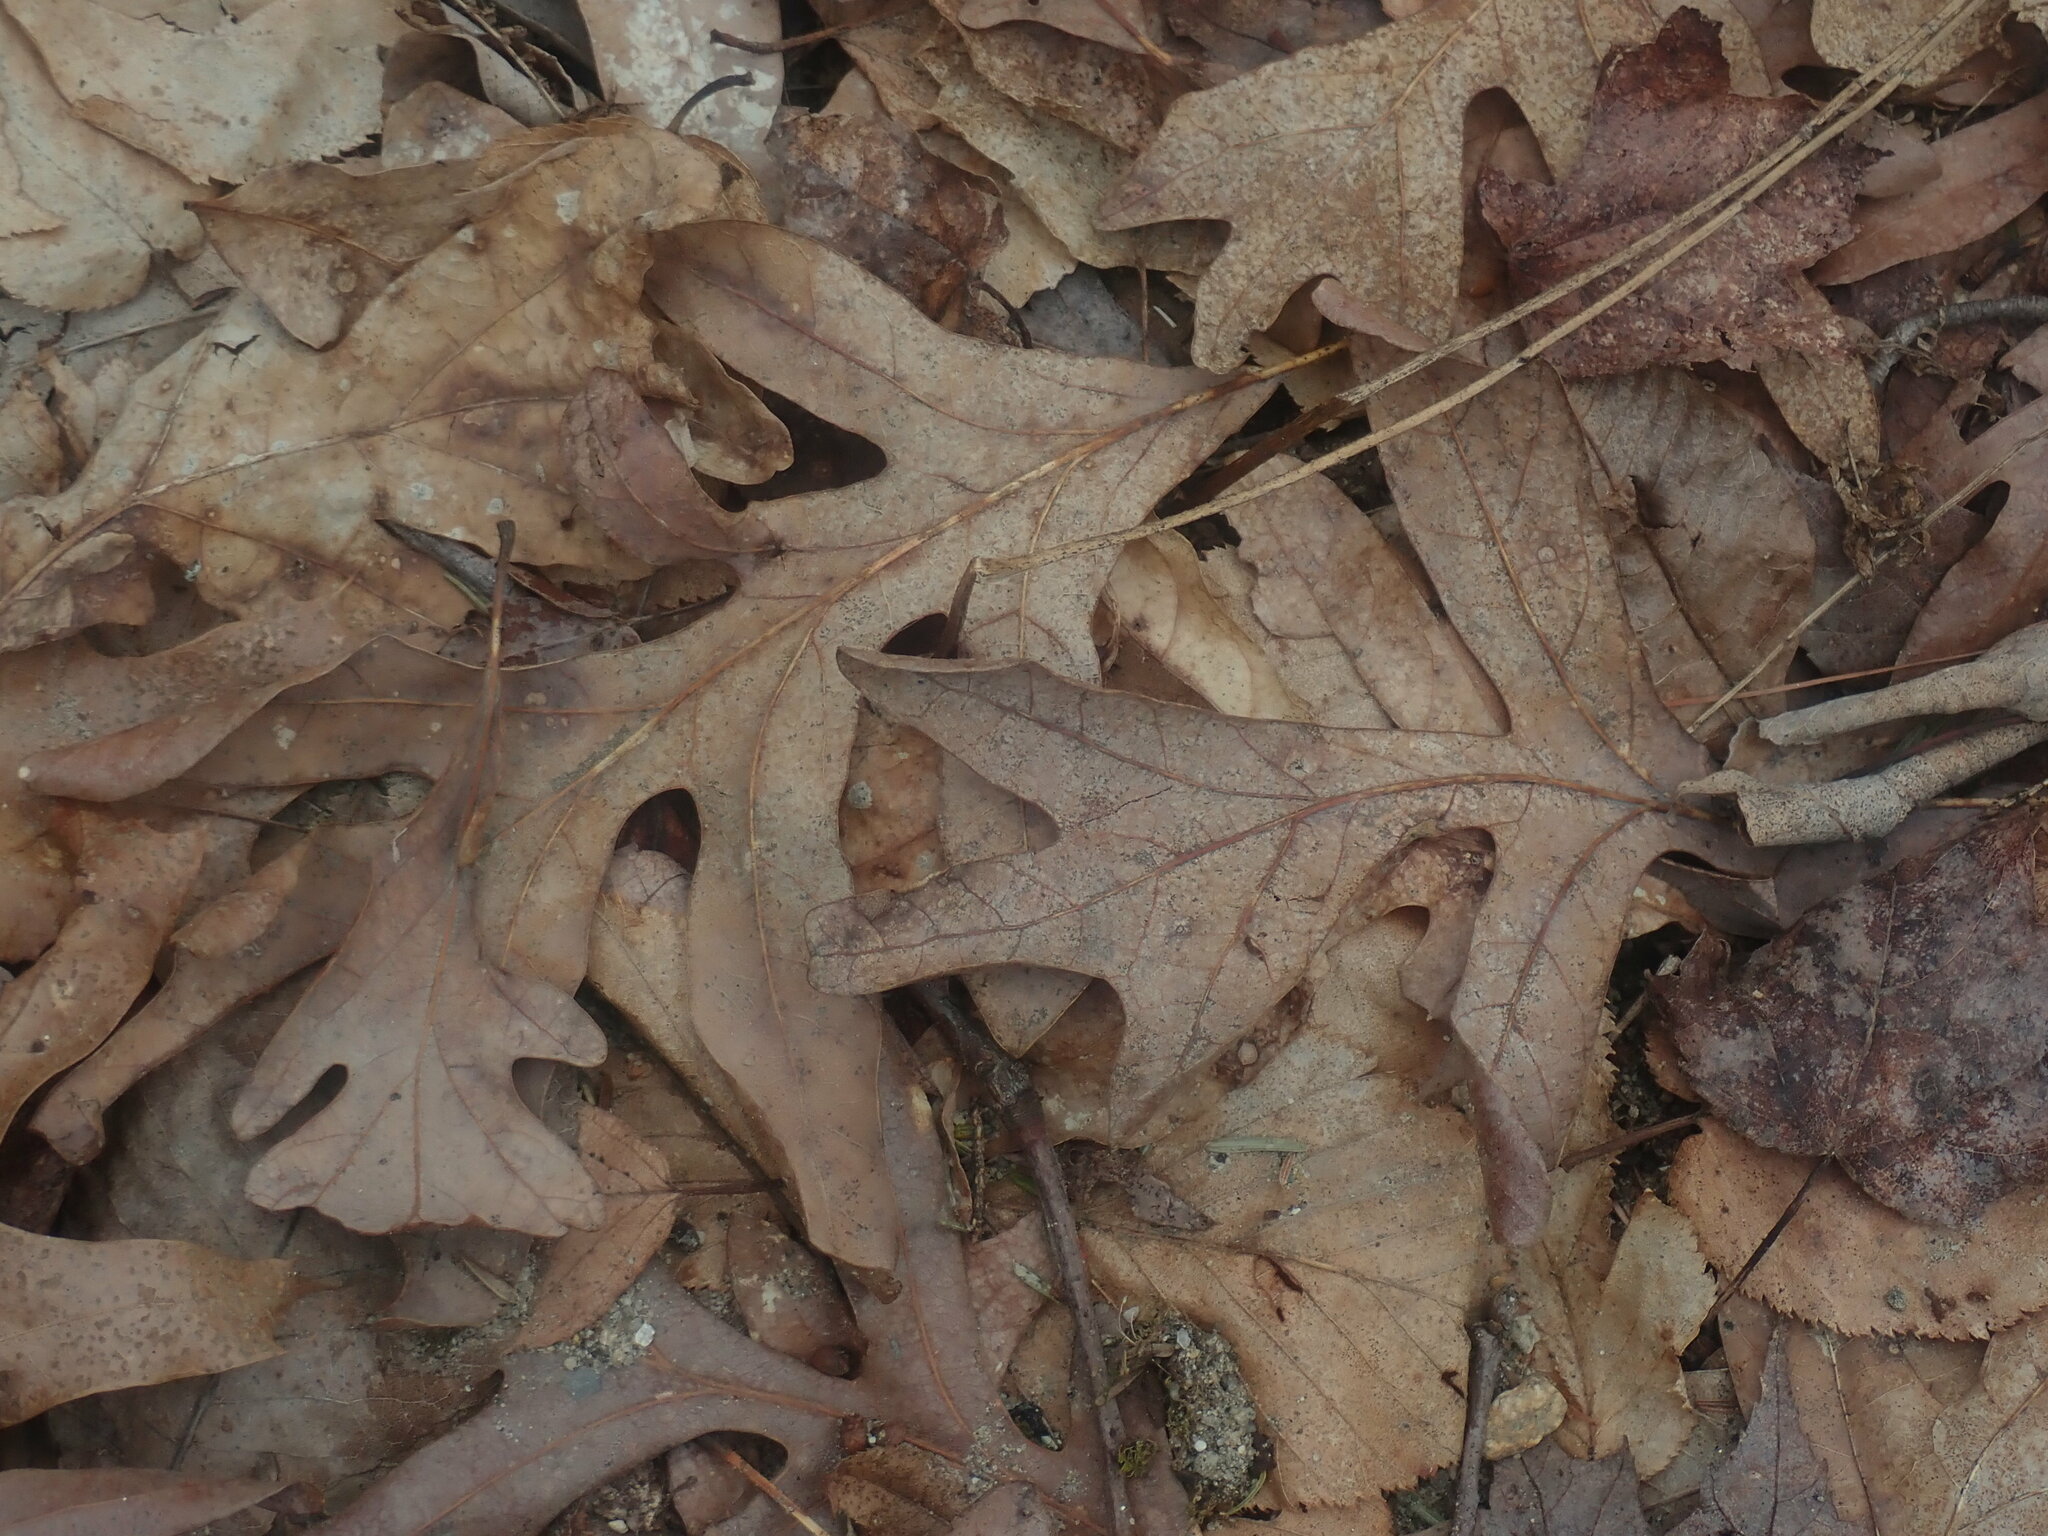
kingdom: Plantae
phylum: Tracheophyta
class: Magnoliopsida
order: Fagales
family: Fagaceae
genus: Quercus
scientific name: Quercus alba
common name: White oak
